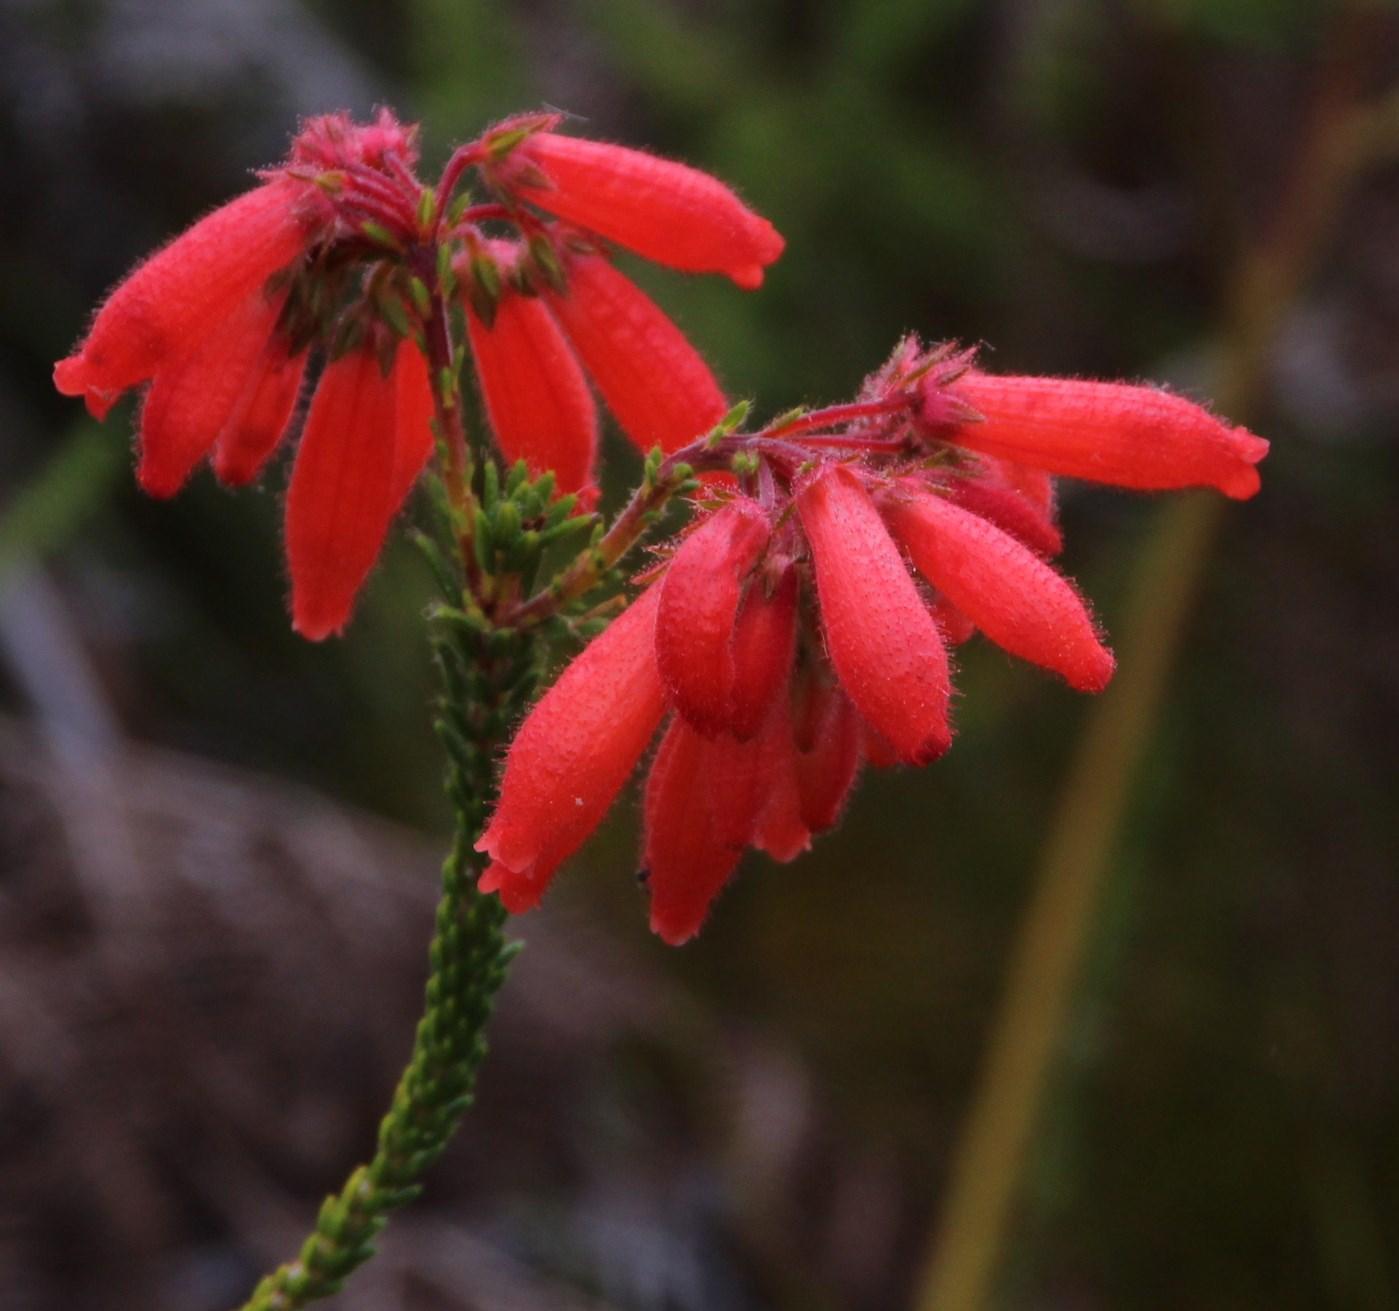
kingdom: Plantae
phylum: Tracheophyta
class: Magnoliopsida
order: Ericales
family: Ericaceae
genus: Erica
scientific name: Erica cerinthoides
